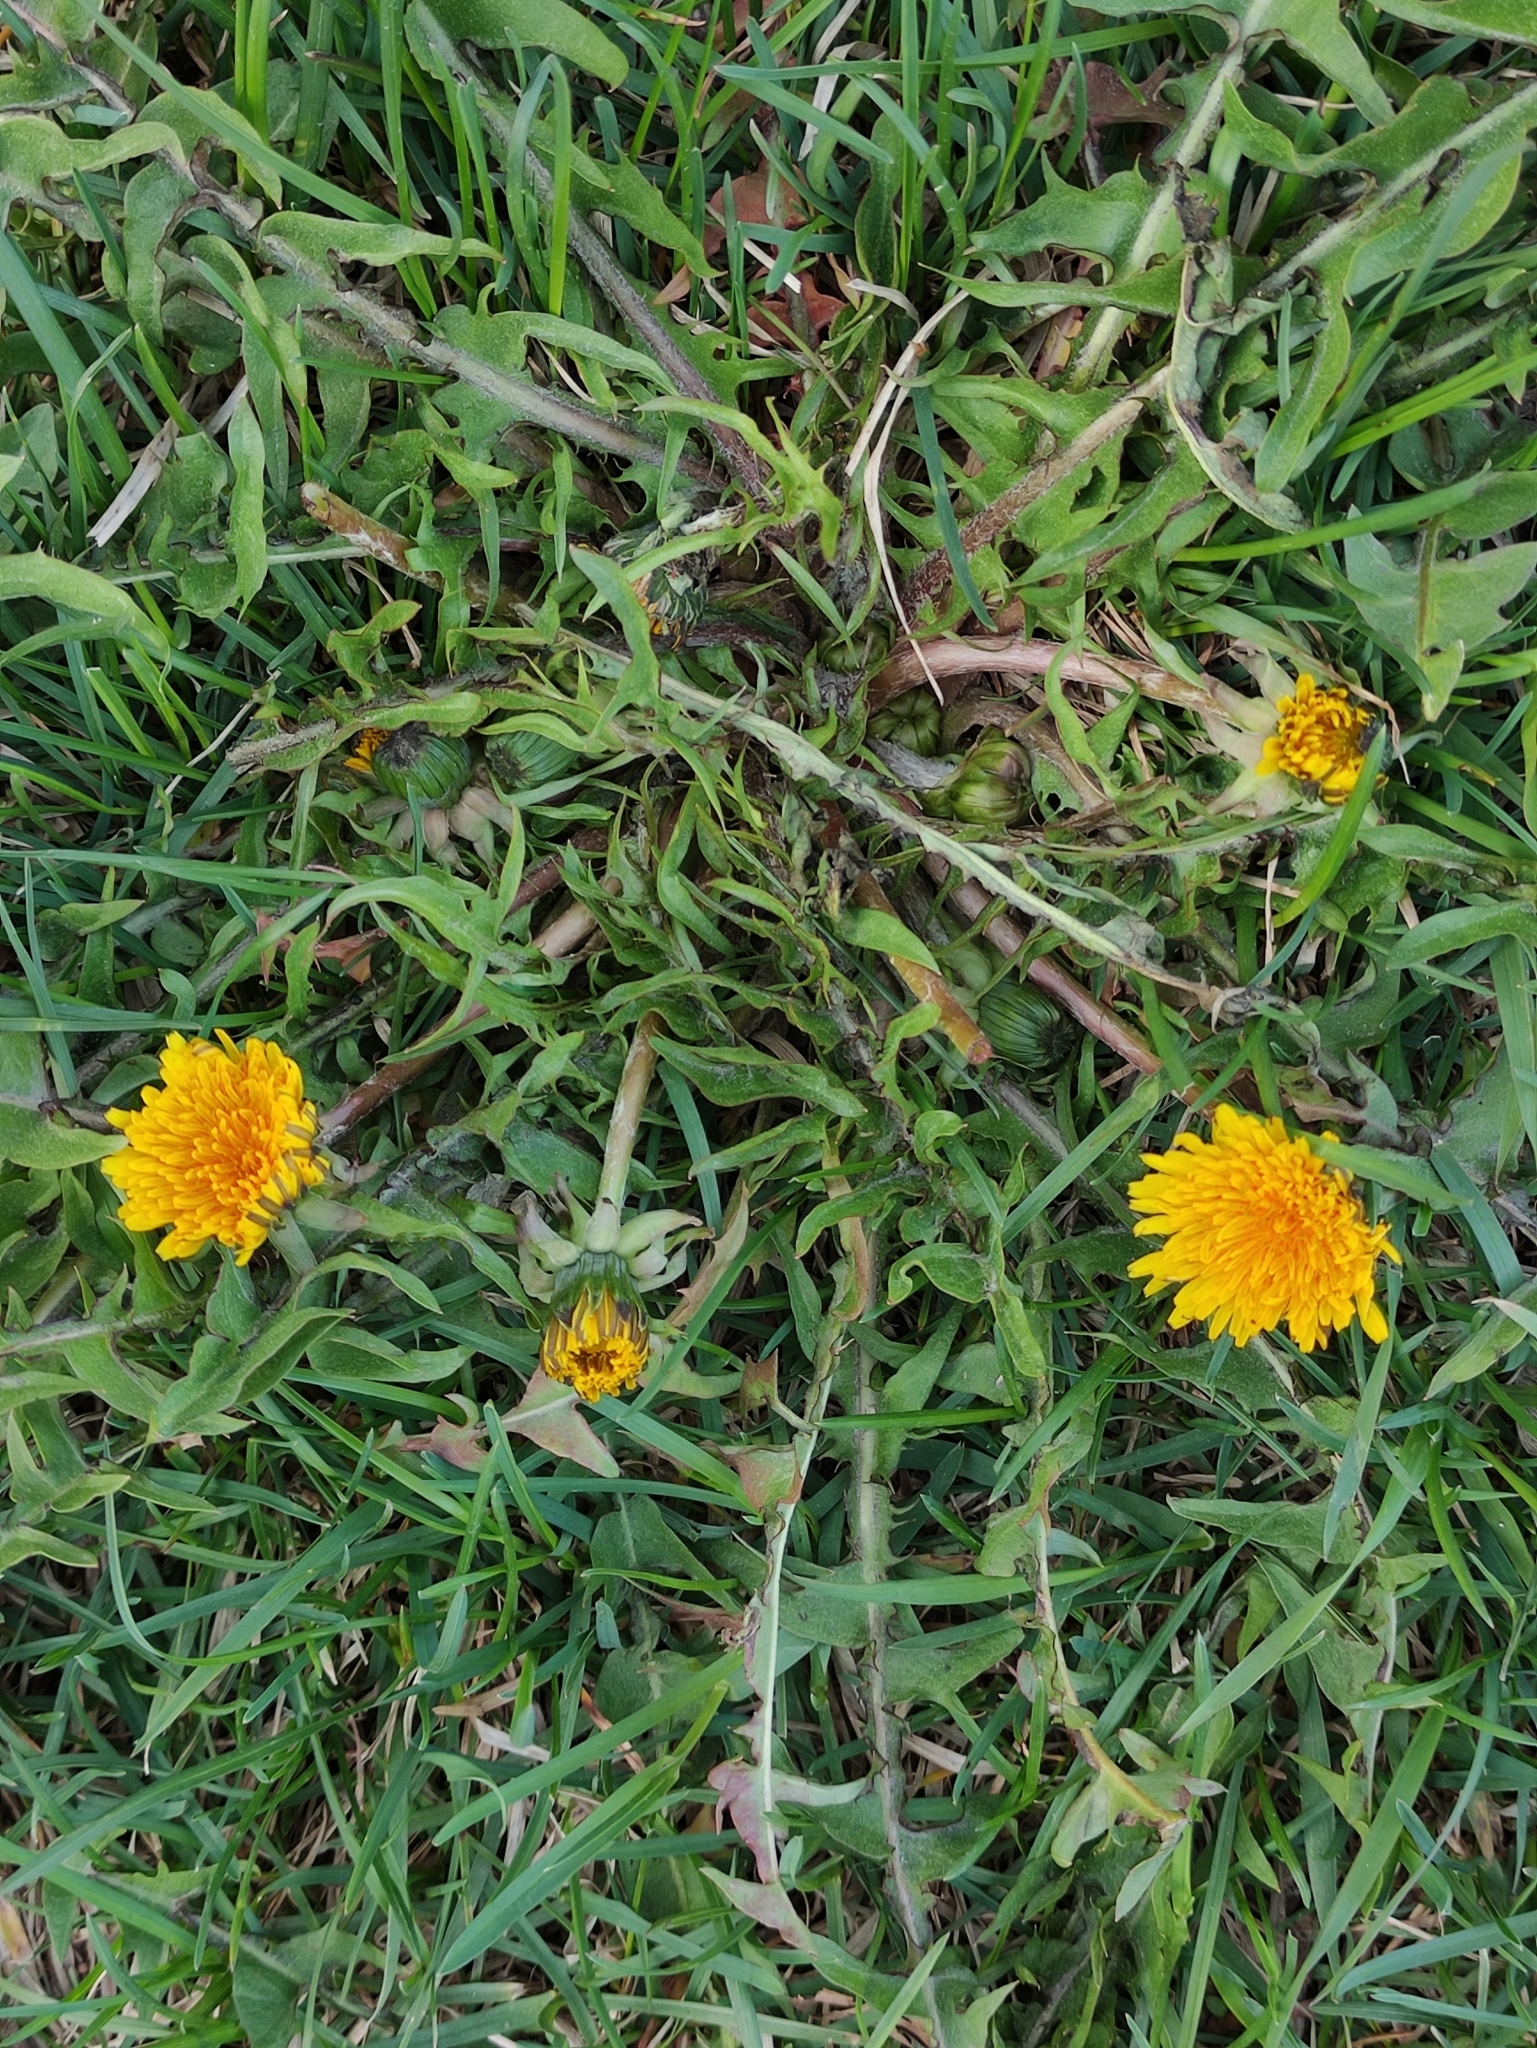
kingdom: Plantae
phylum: Tracheophyta
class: Magnoliopsida
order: Asterales
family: Asteraceae
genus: Taraxacum
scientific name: Taraxacum officinale
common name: Common dandelion
